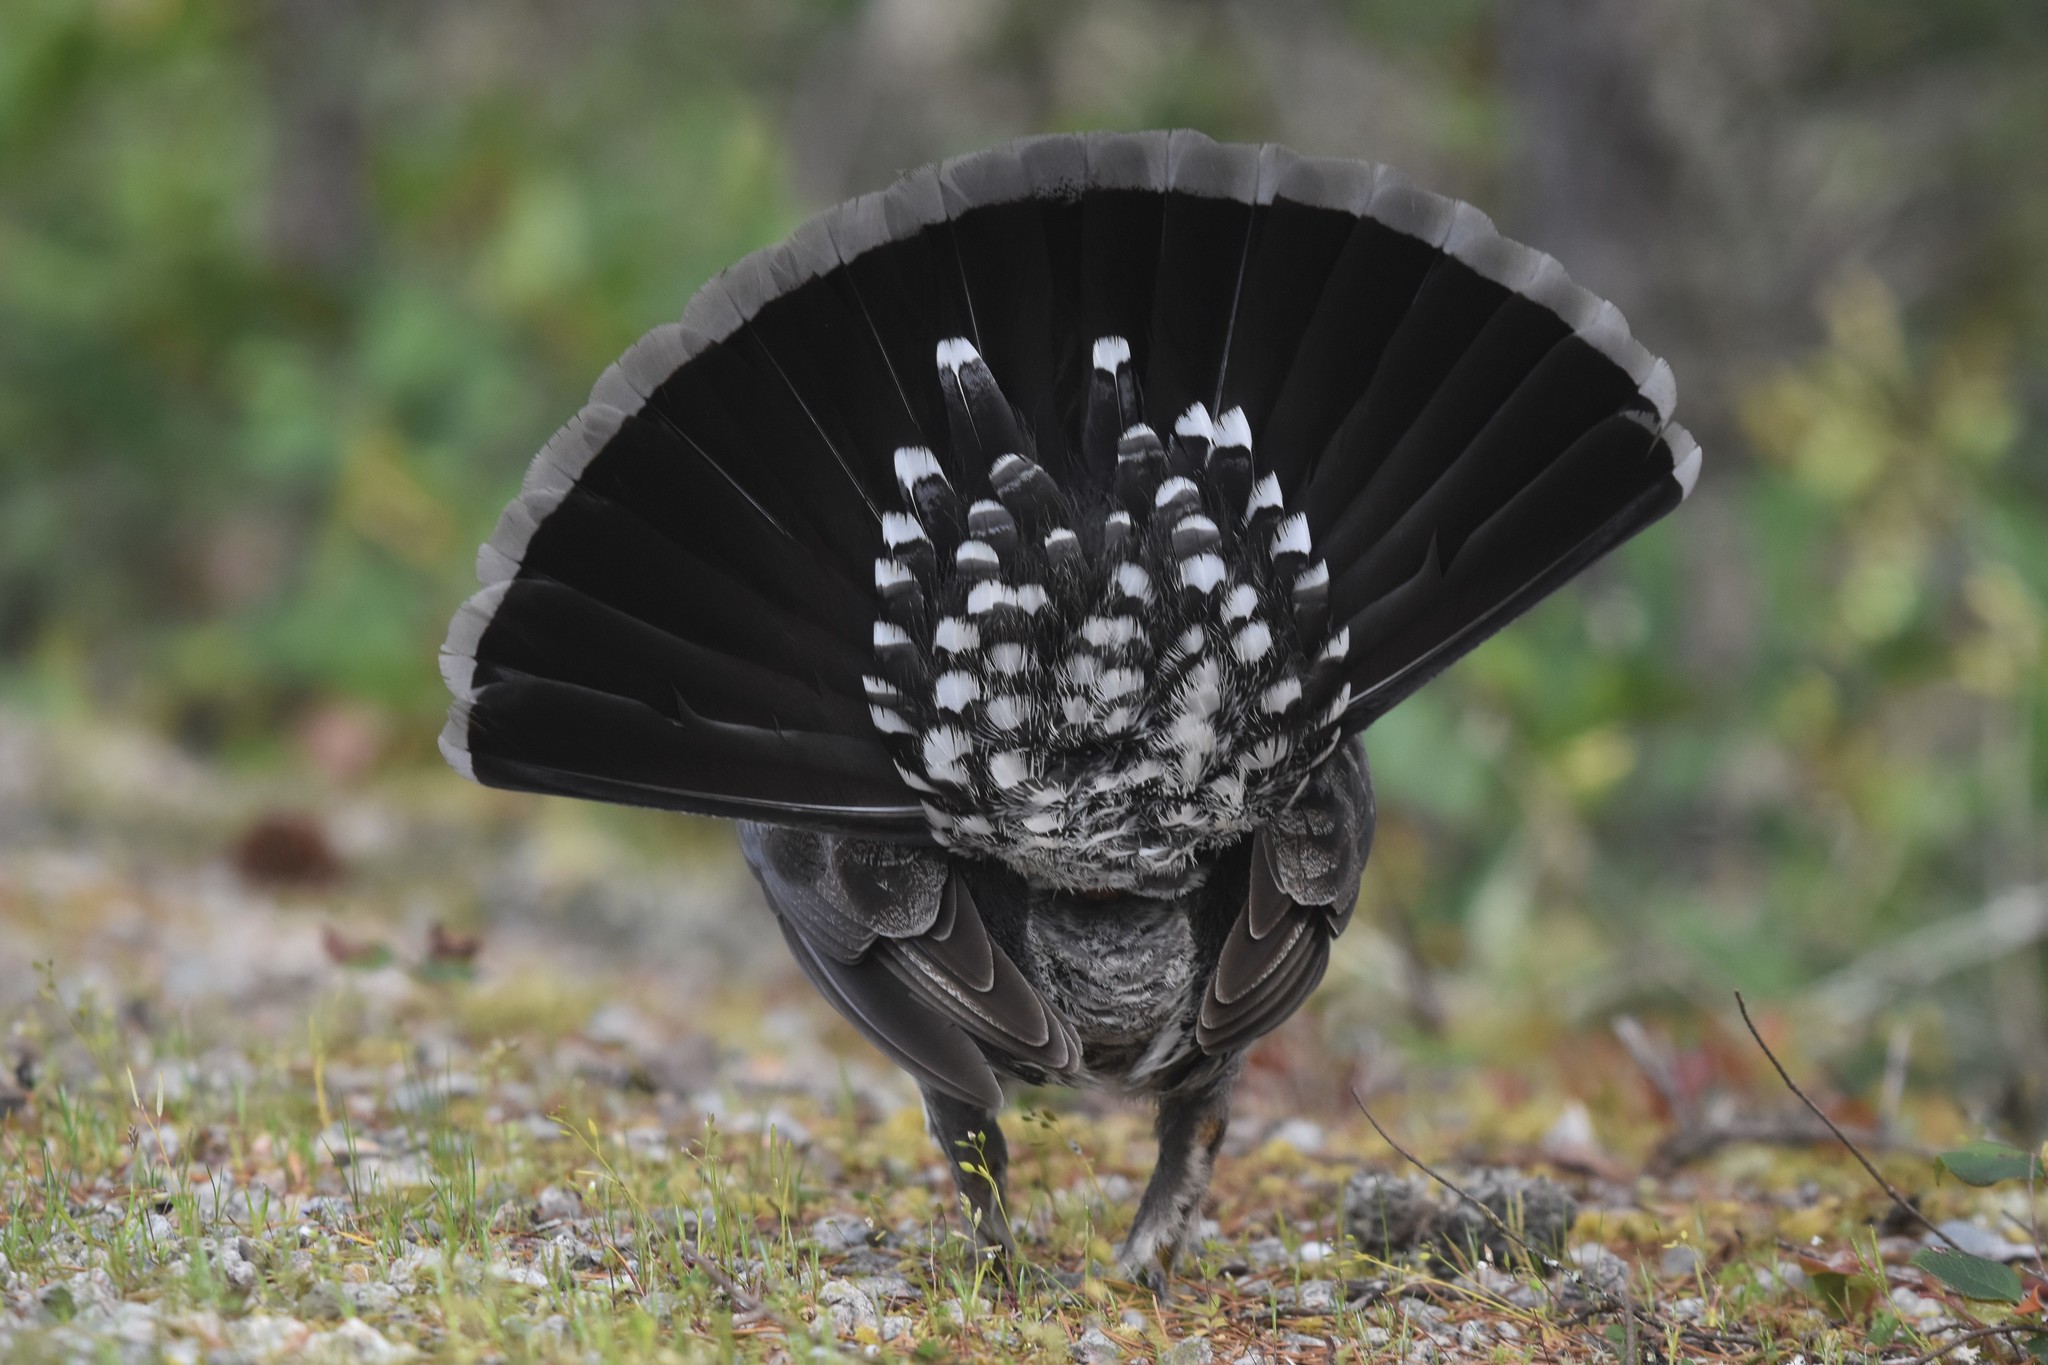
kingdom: Animalia
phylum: Chordata
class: Aves
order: Galliformes
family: Phasianidae
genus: Dendragapus
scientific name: Dendragapus fuliginosus
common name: Sooty grouse
